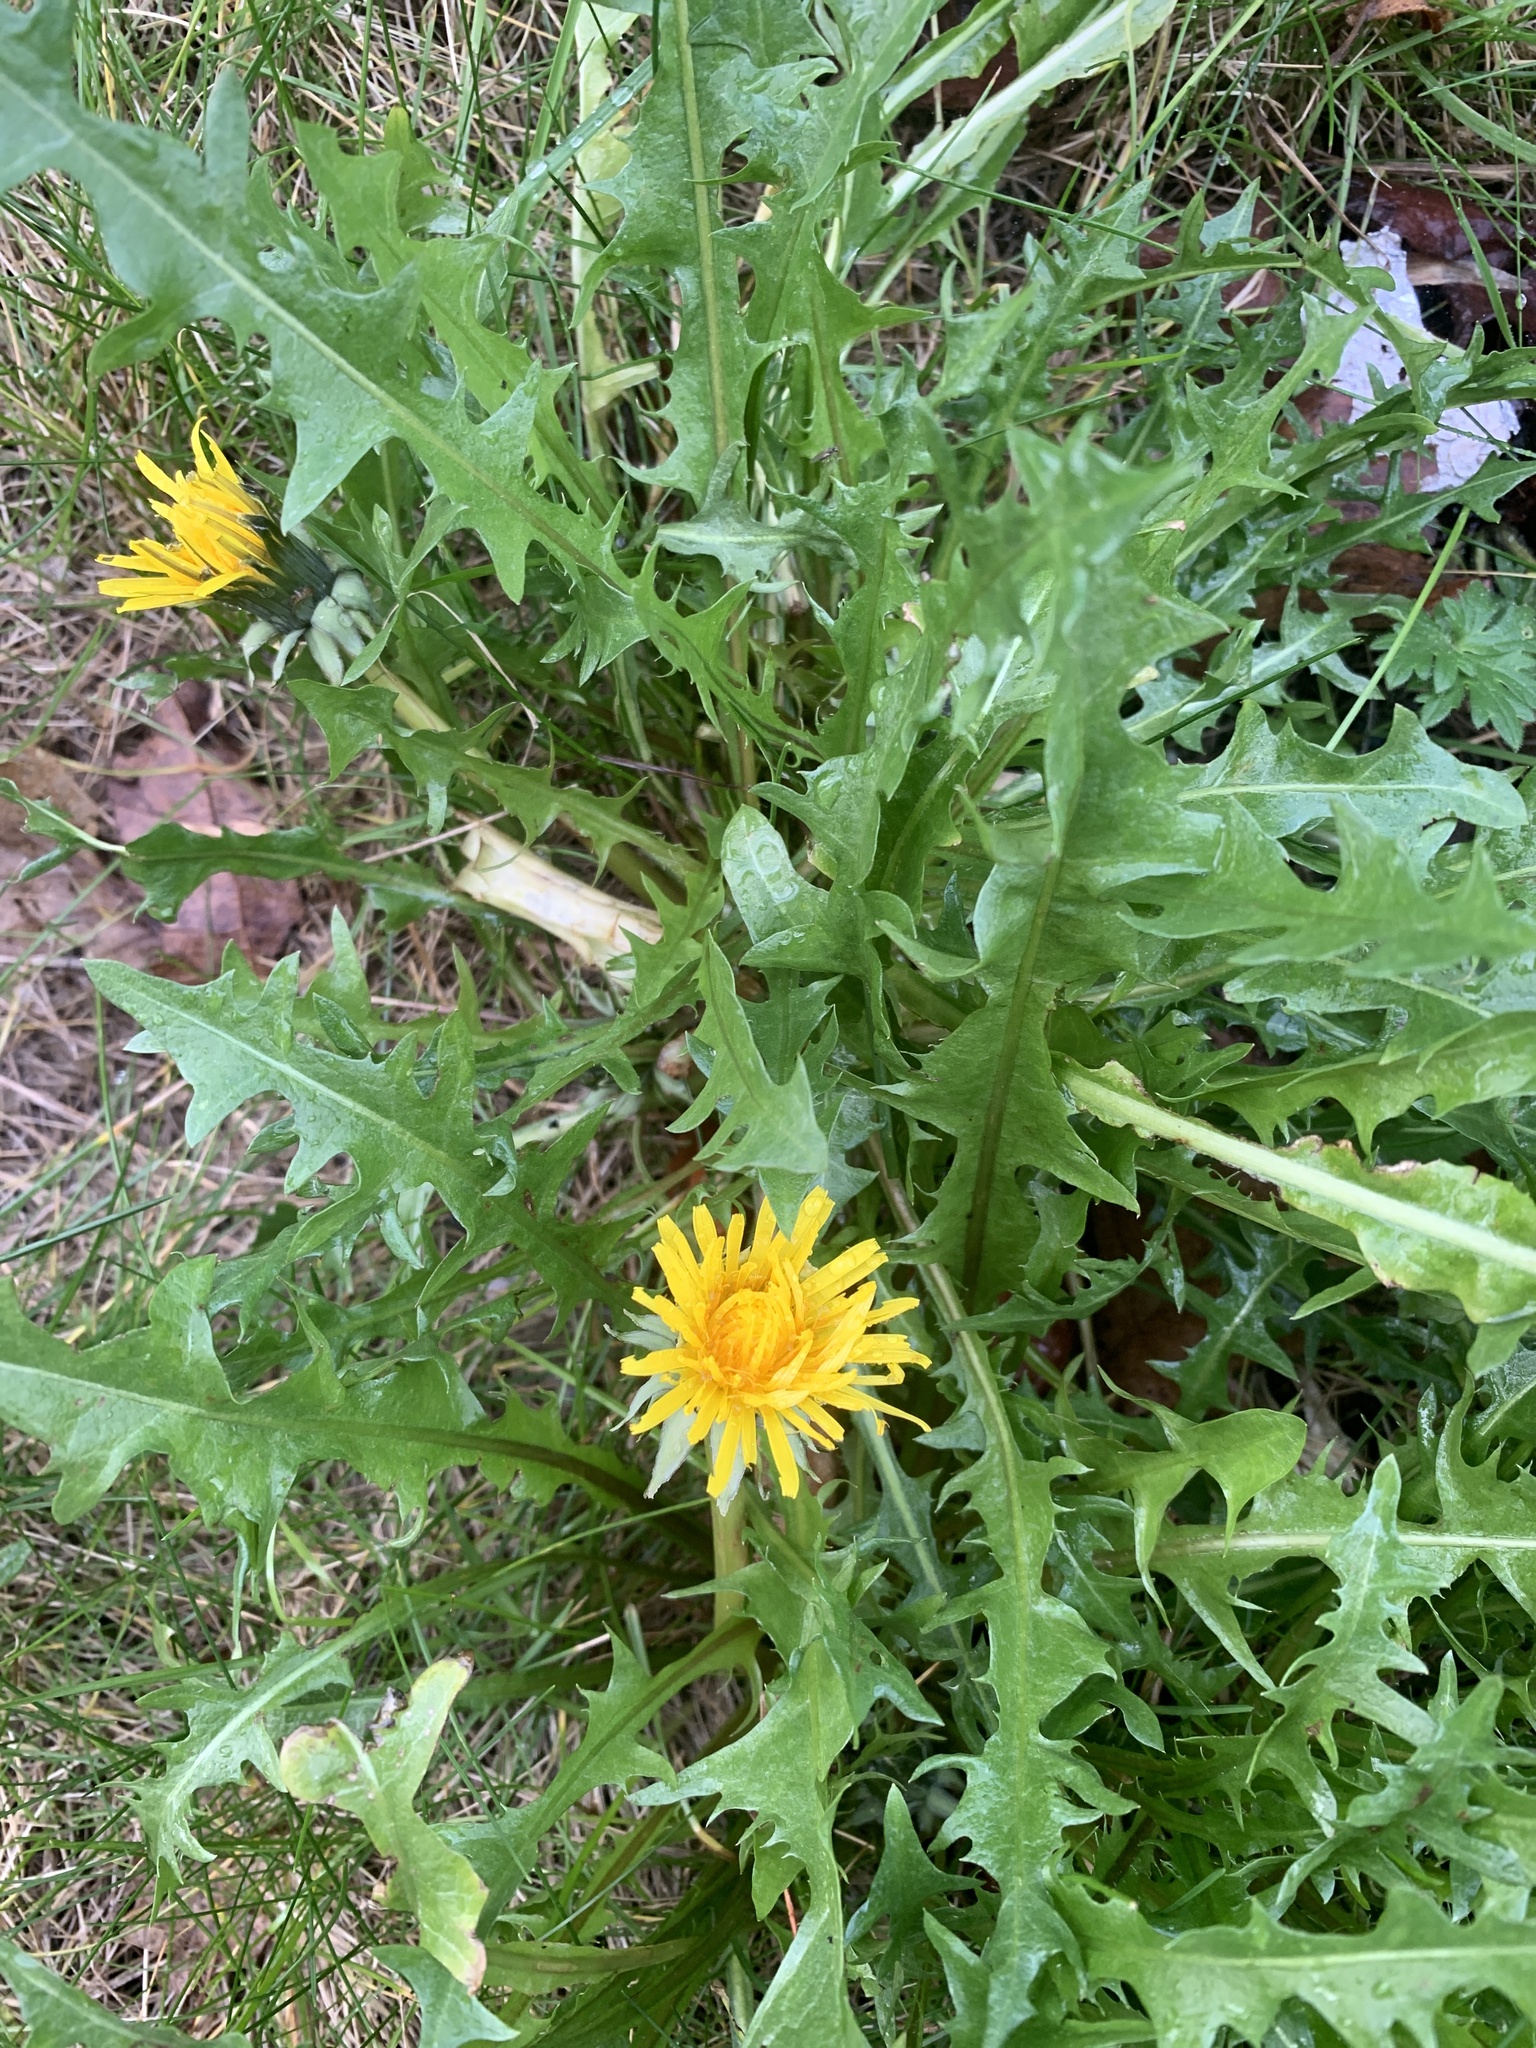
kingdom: Plantae
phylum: Tracheophyta
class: Magnoliopsida
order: Asterales
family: Asteraceae
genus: Taraxacum
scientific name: Taraxacum officinale
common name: Common dandelion
